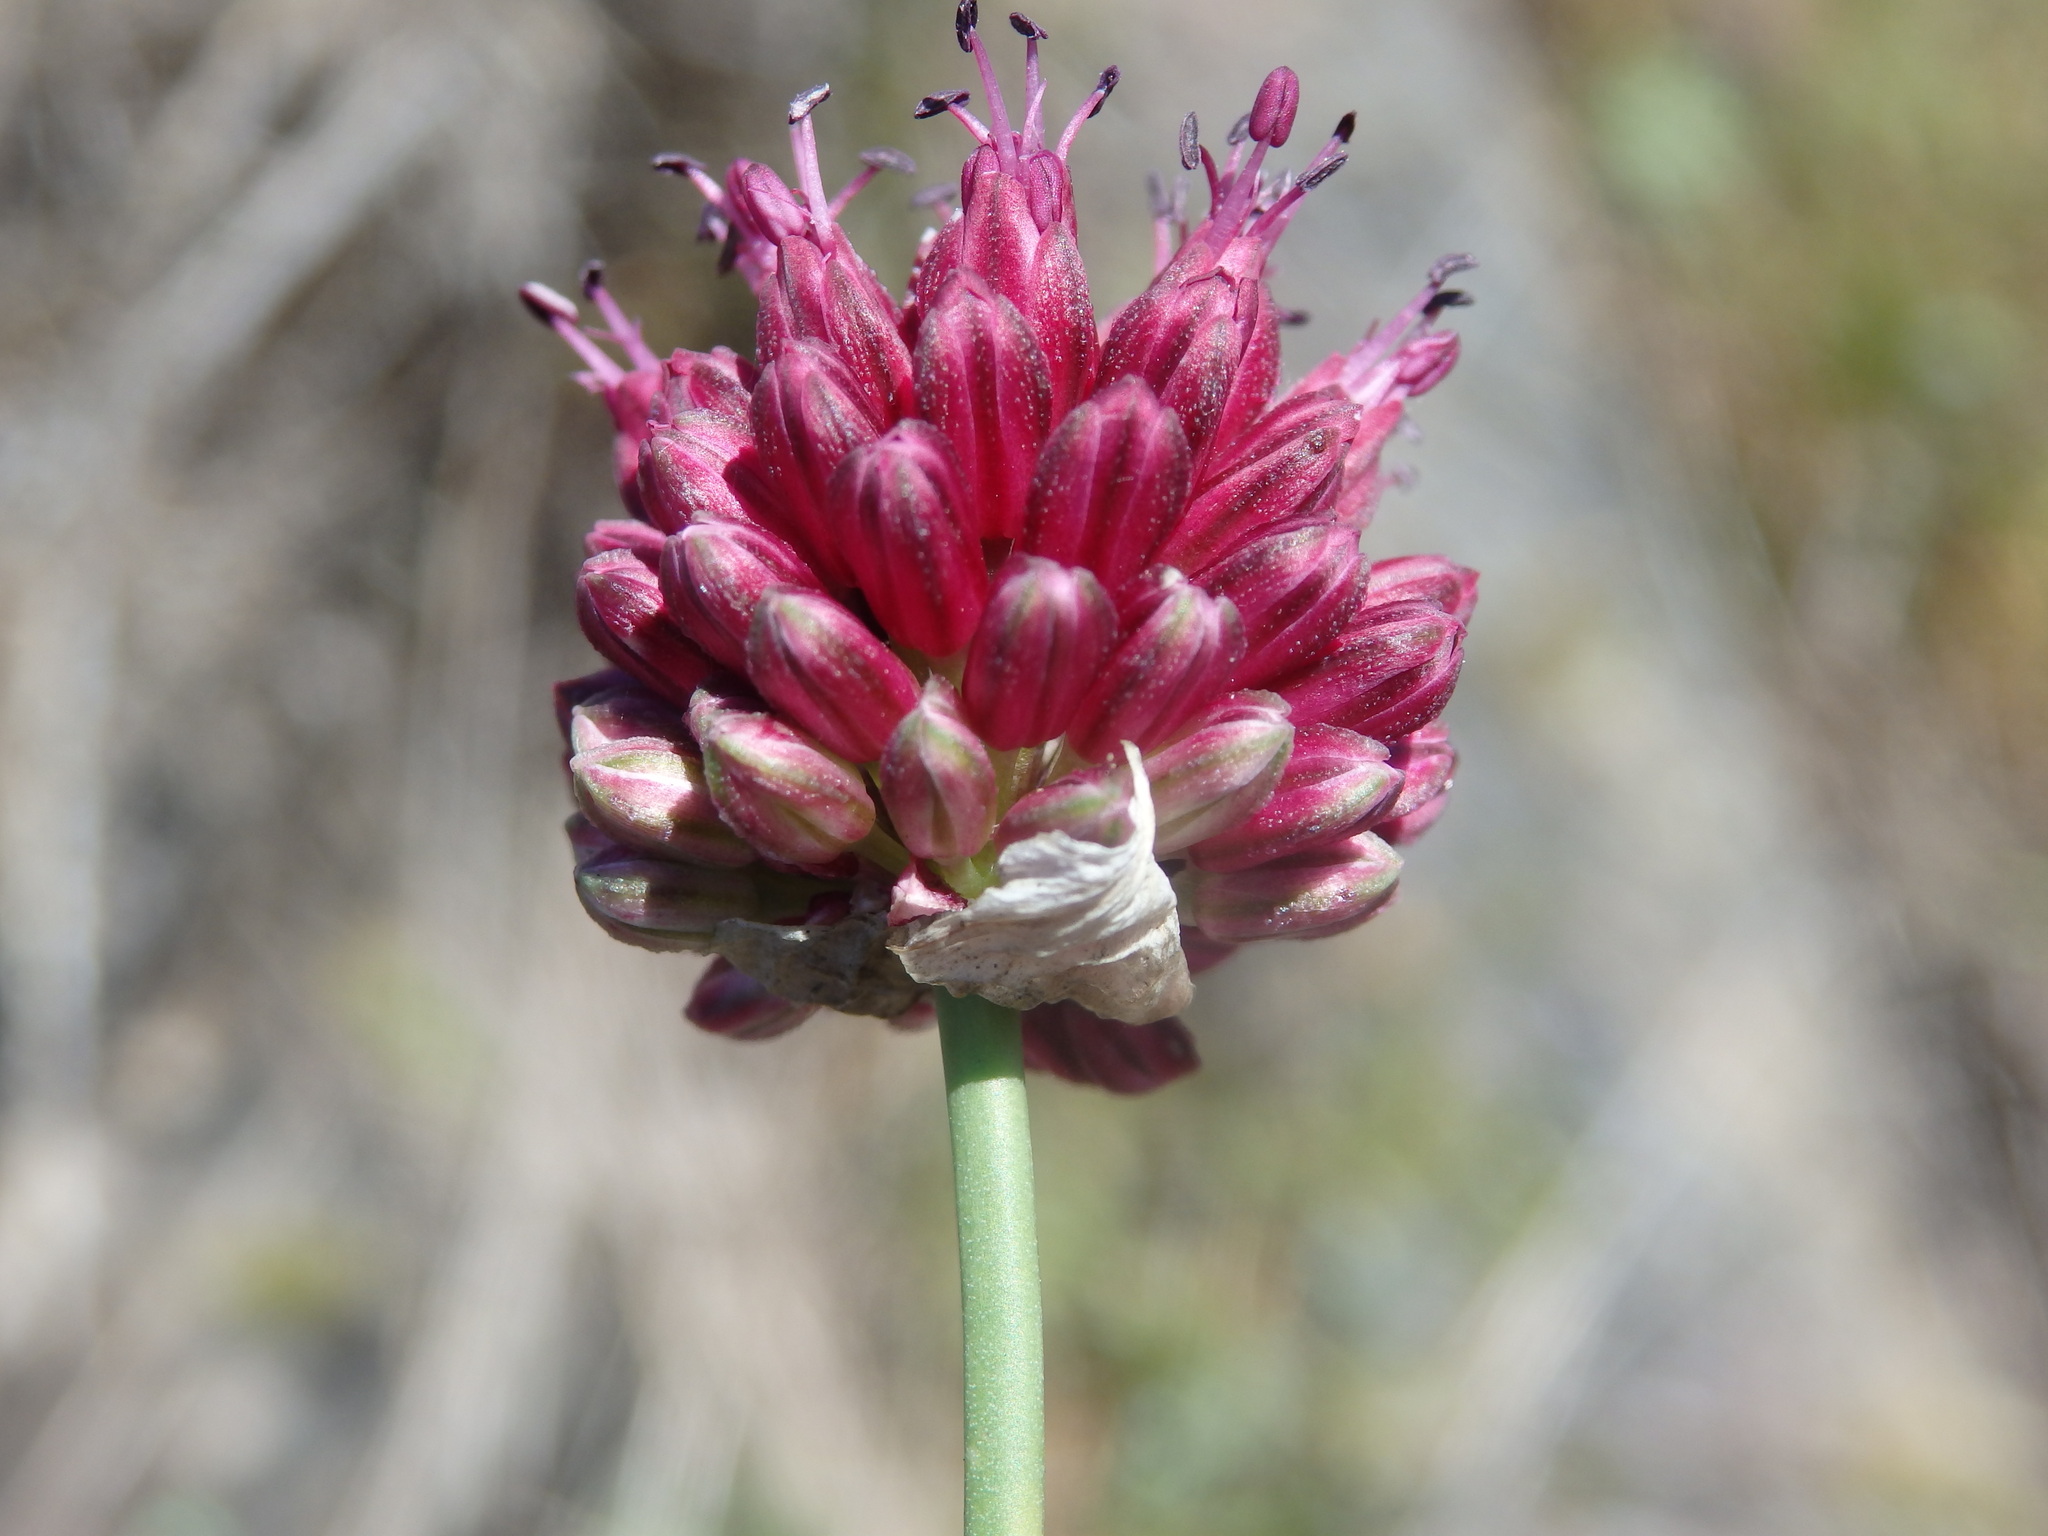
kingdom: Plantae
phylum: Tracheophyta
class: Liliopsida
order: Asparagales
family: Amaryllidaceae
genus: Allium
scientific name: Allium sphaerocephalon
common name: Round-headed leek
